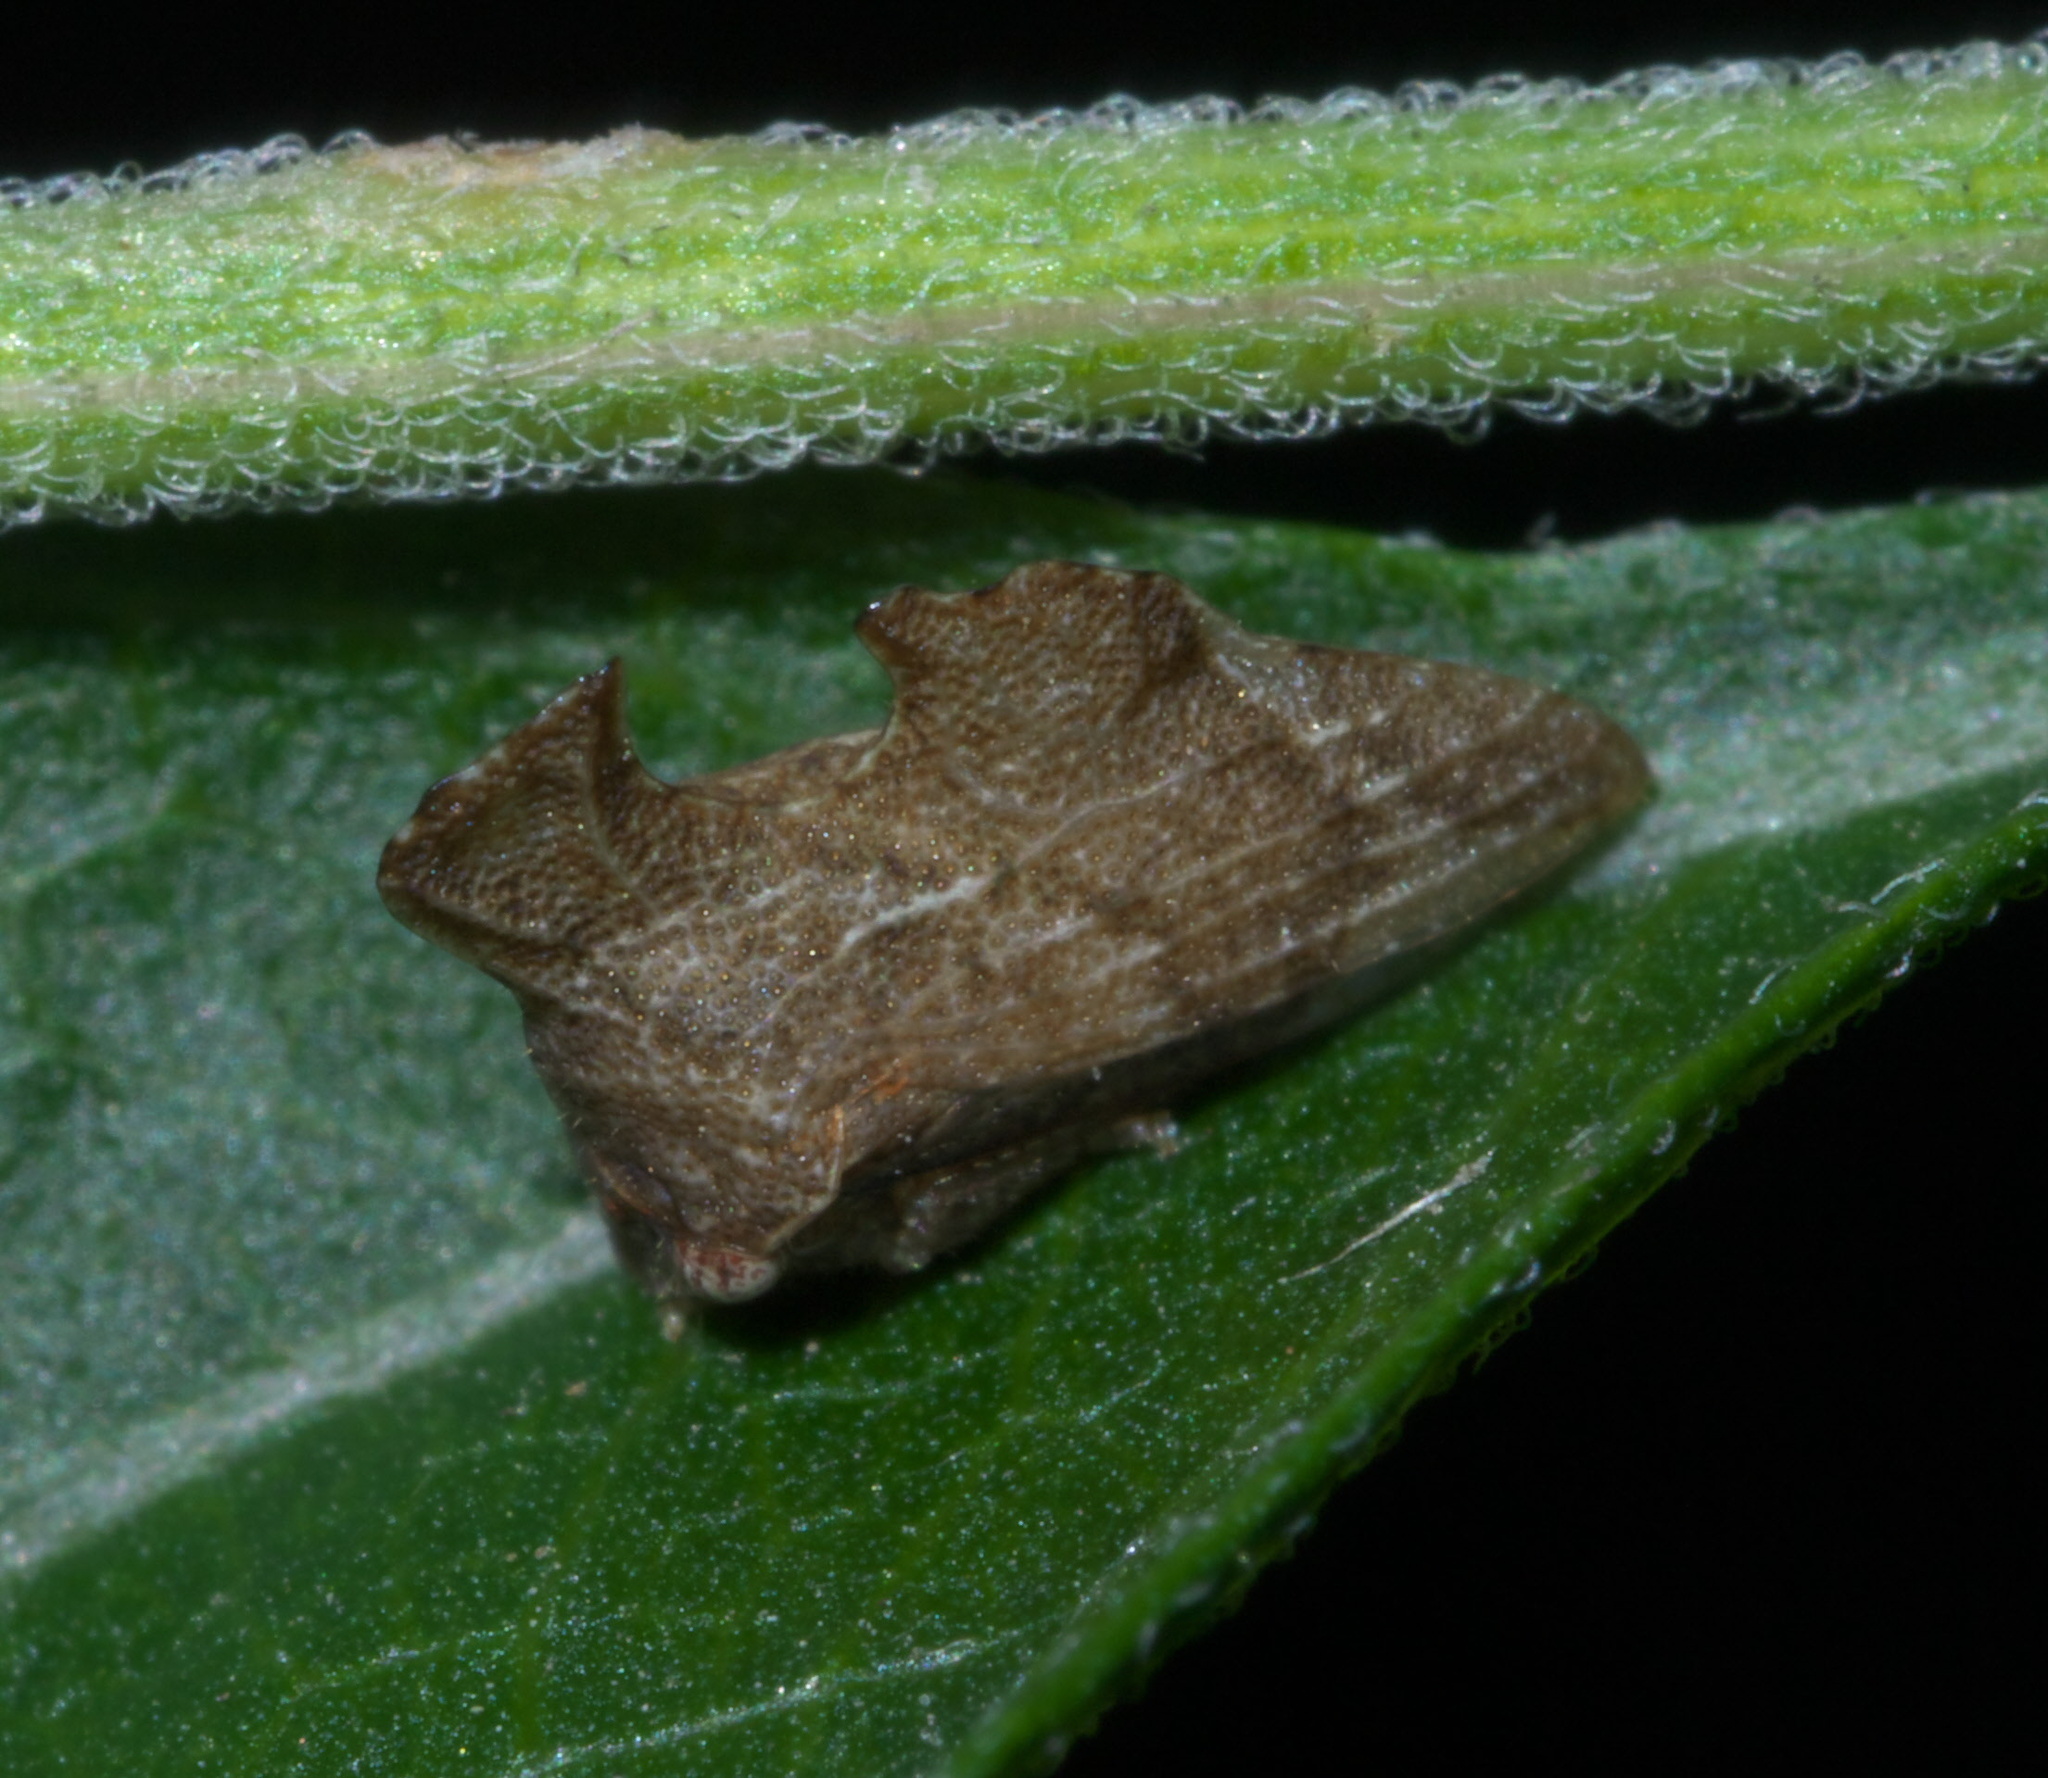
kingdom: Animalia
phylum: Arthropoda
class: Insecta
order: Hemiptera
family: Membracidae
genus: Entylia
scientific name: Entylia carinata
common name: Keeled treehopper
